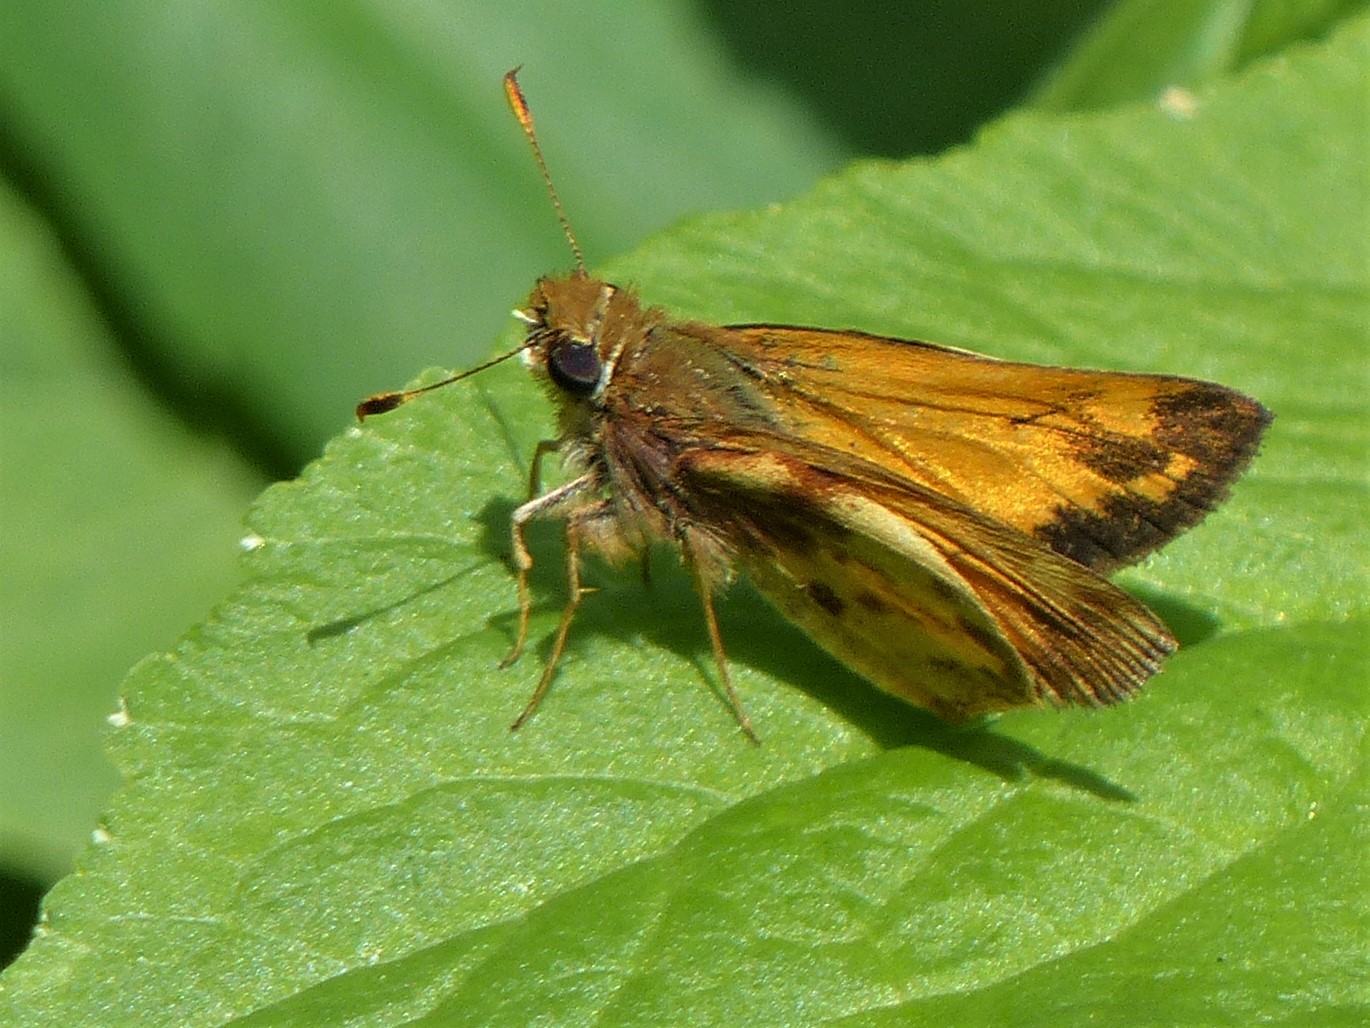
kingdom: Animalia
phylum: Arthropoda
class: Insecta
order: Lepidoptera
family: Hesperiidae
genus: Lon
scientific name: Lon zabulon
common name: Zabulon skipper
